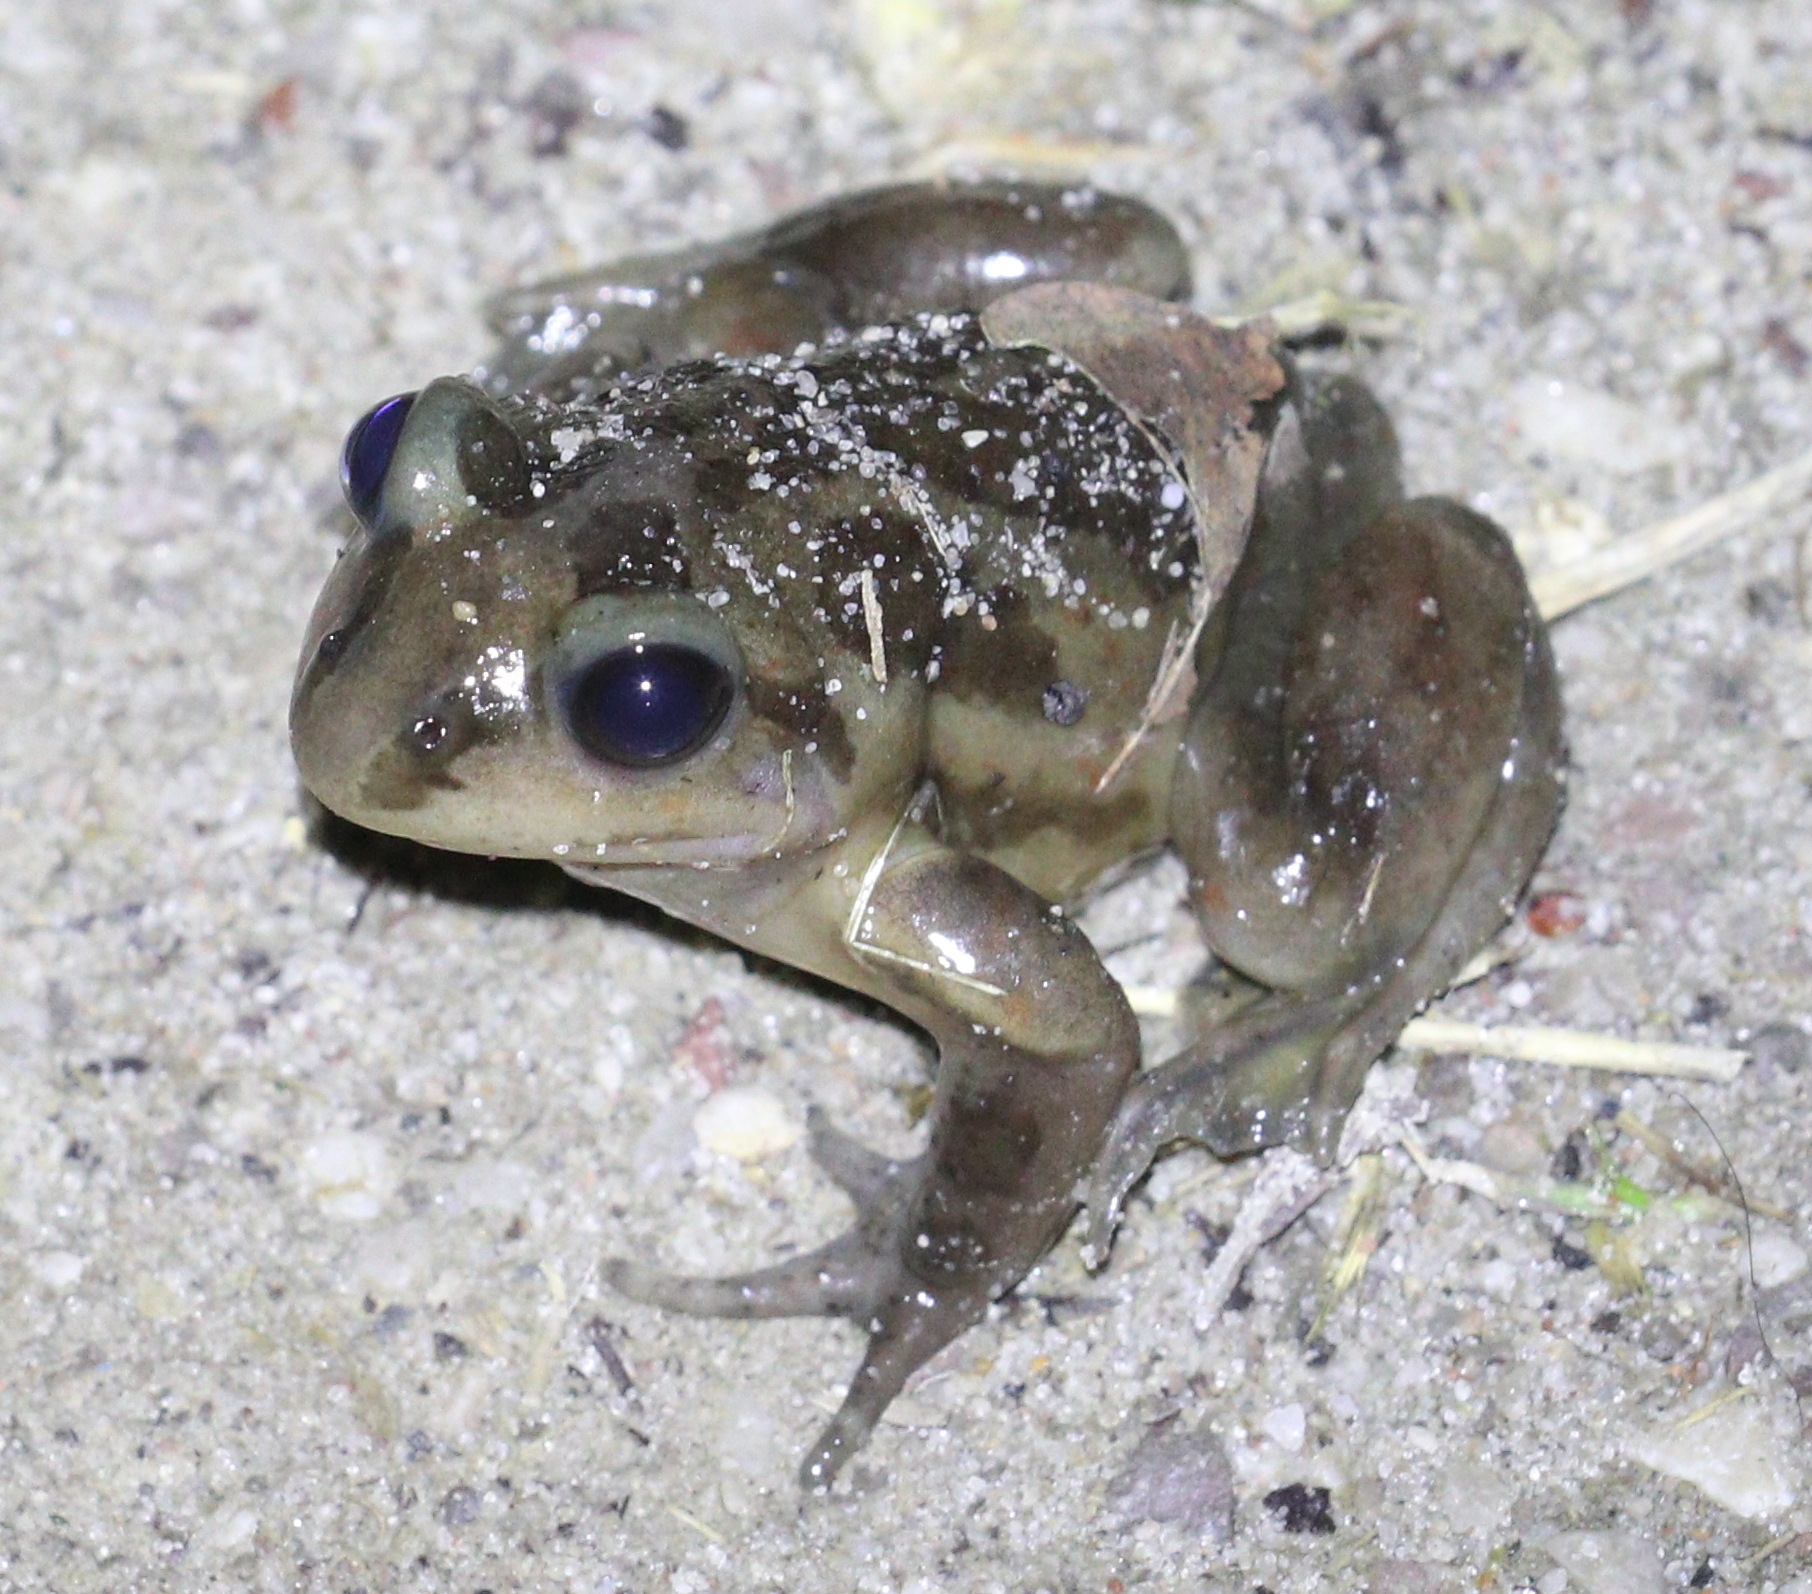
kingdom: Animalia
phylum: Chordata
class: Amphibia
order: Anura
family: Pelobatidae
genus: Pelobates
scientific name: Pelobates fuscus
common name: Common eurasian spadefoot toad
